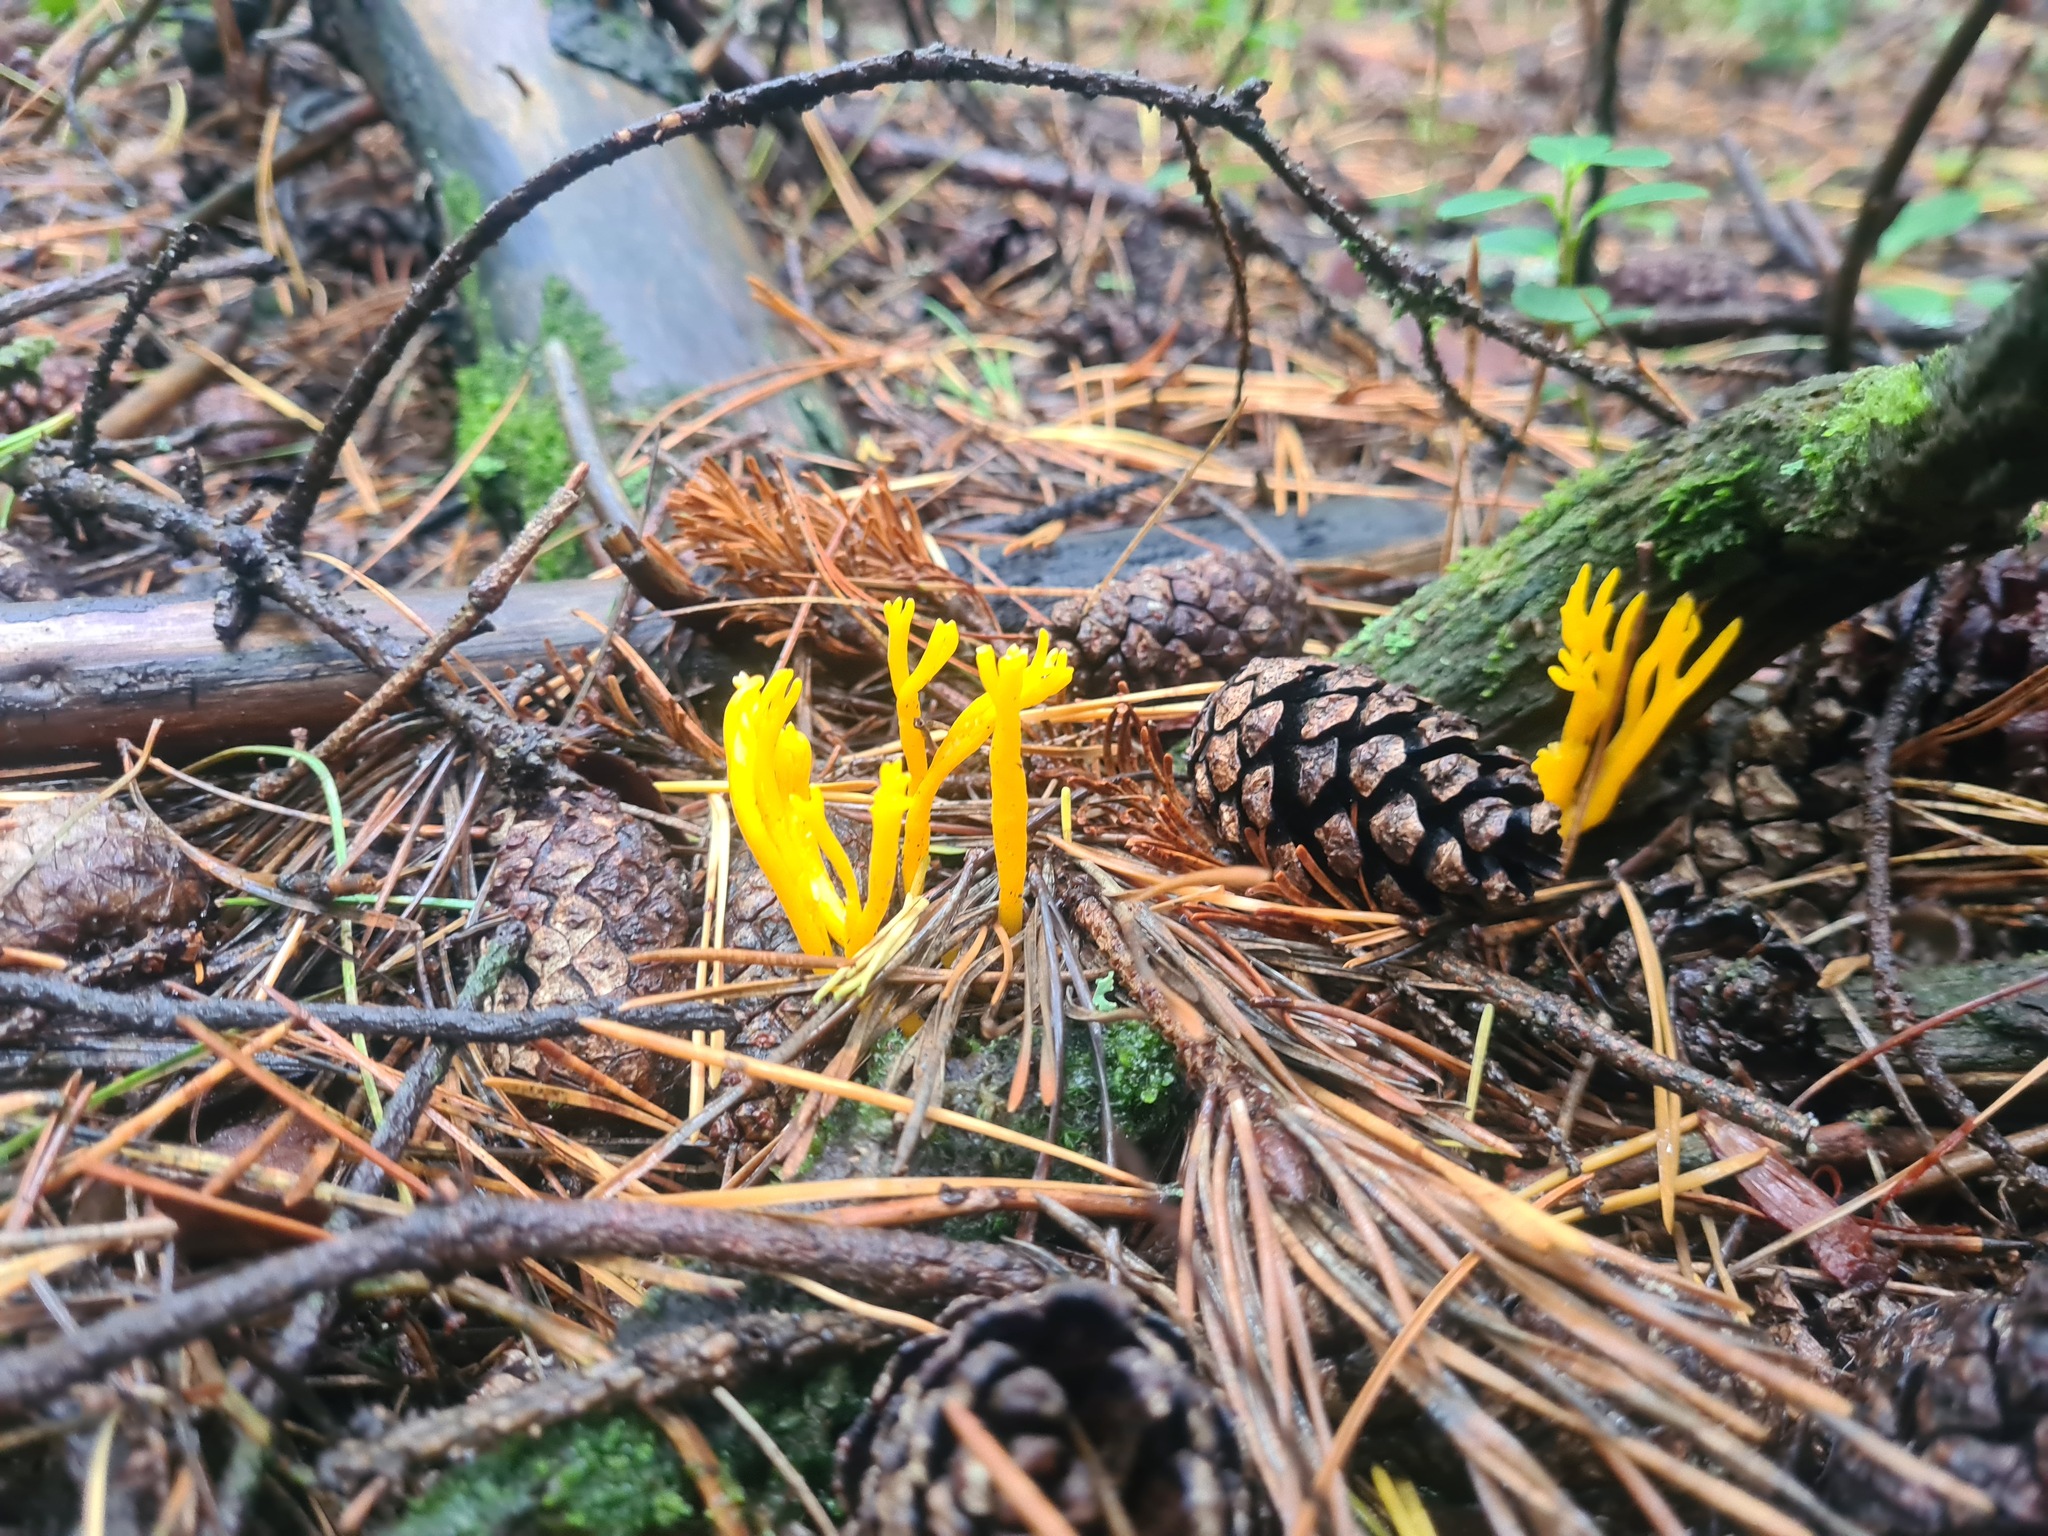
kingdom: Fungi
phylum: Basidiomycota
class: Dacrymycetes
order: Dacrymycetales
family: Dacrymycetaceae
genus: Calocera
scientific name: Calocera viscosa
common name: Yellow stagshorn
